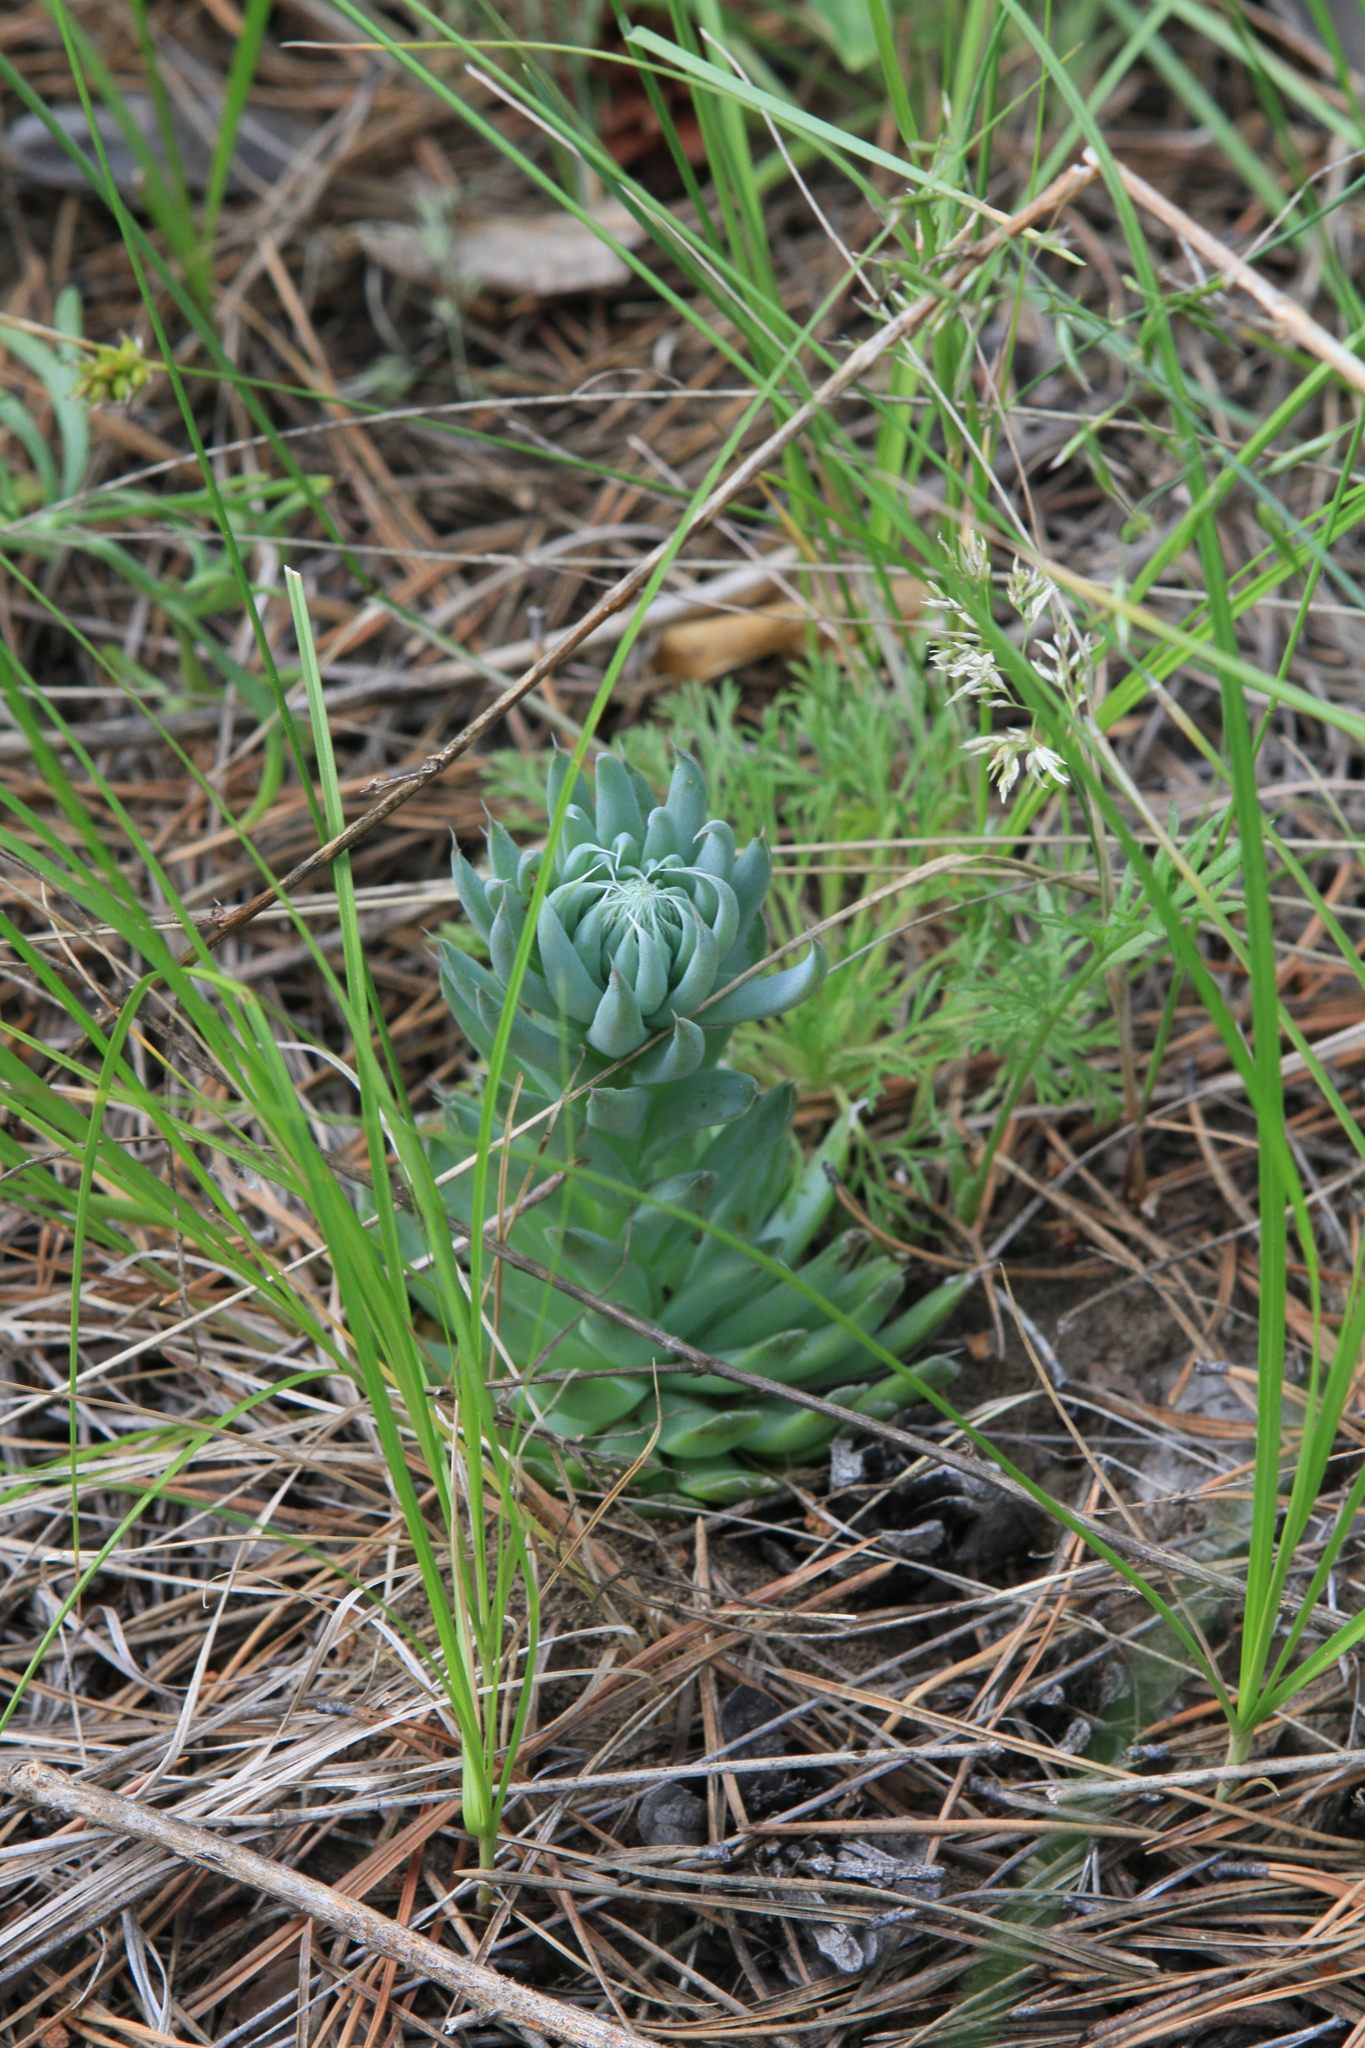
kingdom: Plantae
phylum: Tracheophyta
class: Magnoliopsida
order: Saxifragales
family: Crassulaceae
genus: Orostachys
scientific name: Orostachys spinosa
